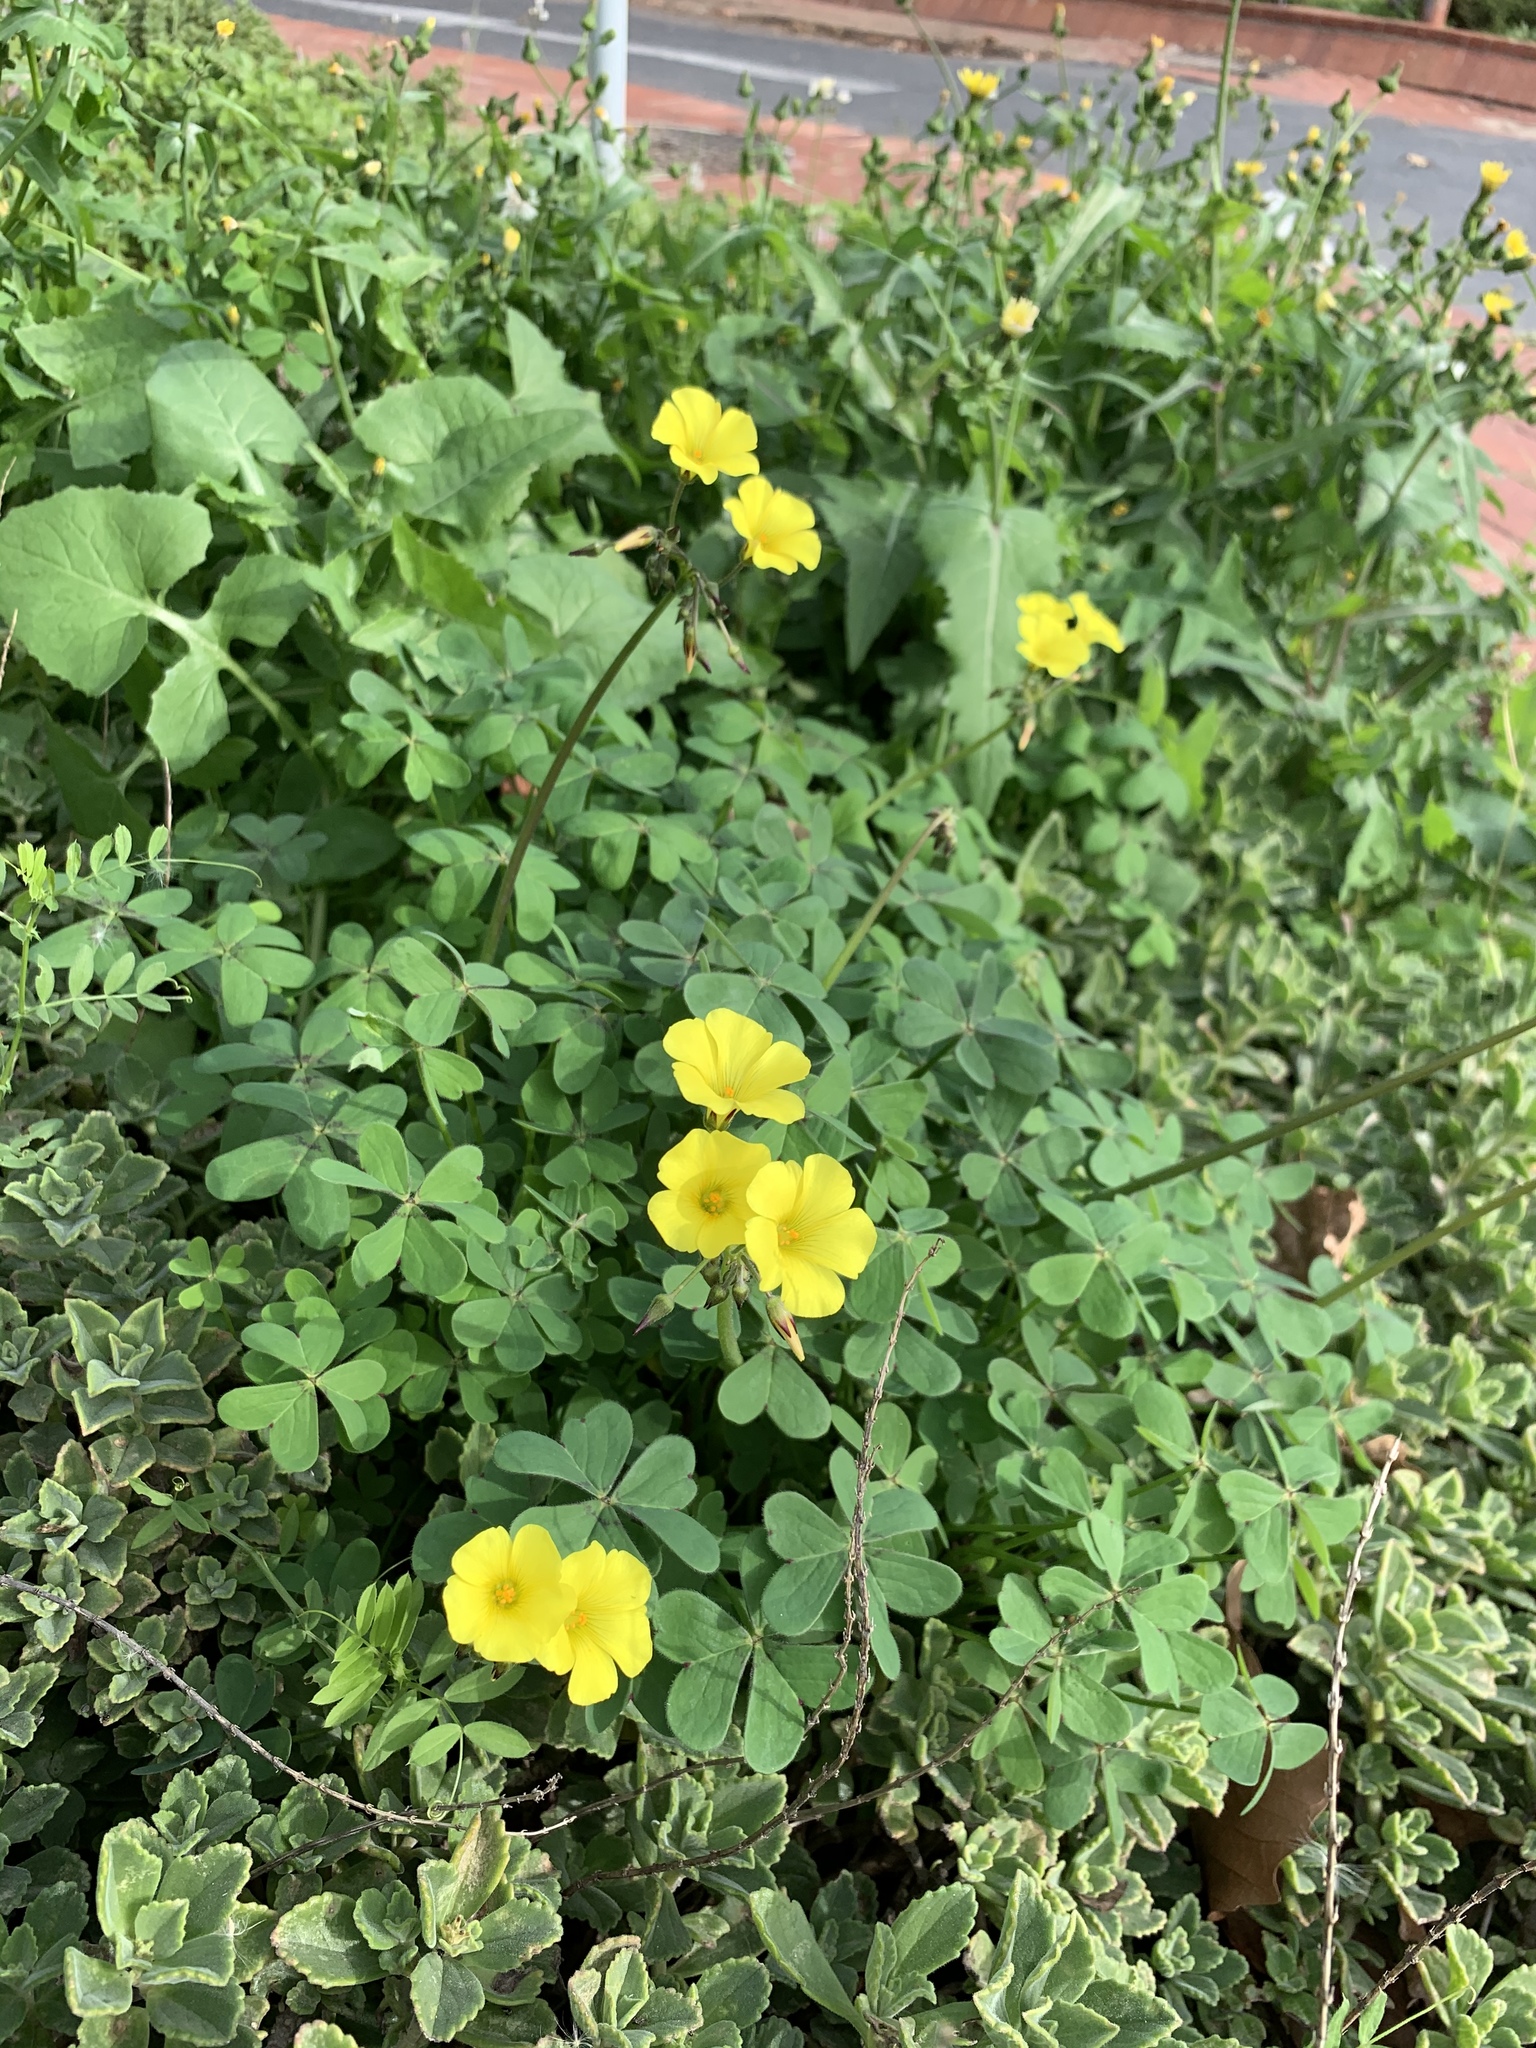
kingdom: Plantae
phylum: Tracheophyta
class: Magnoliopsida
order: Oxalidales
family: Oxalidaceae
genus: Oxalis
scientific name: Oxalis pes-caprae
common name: Bermuda-buttercup
